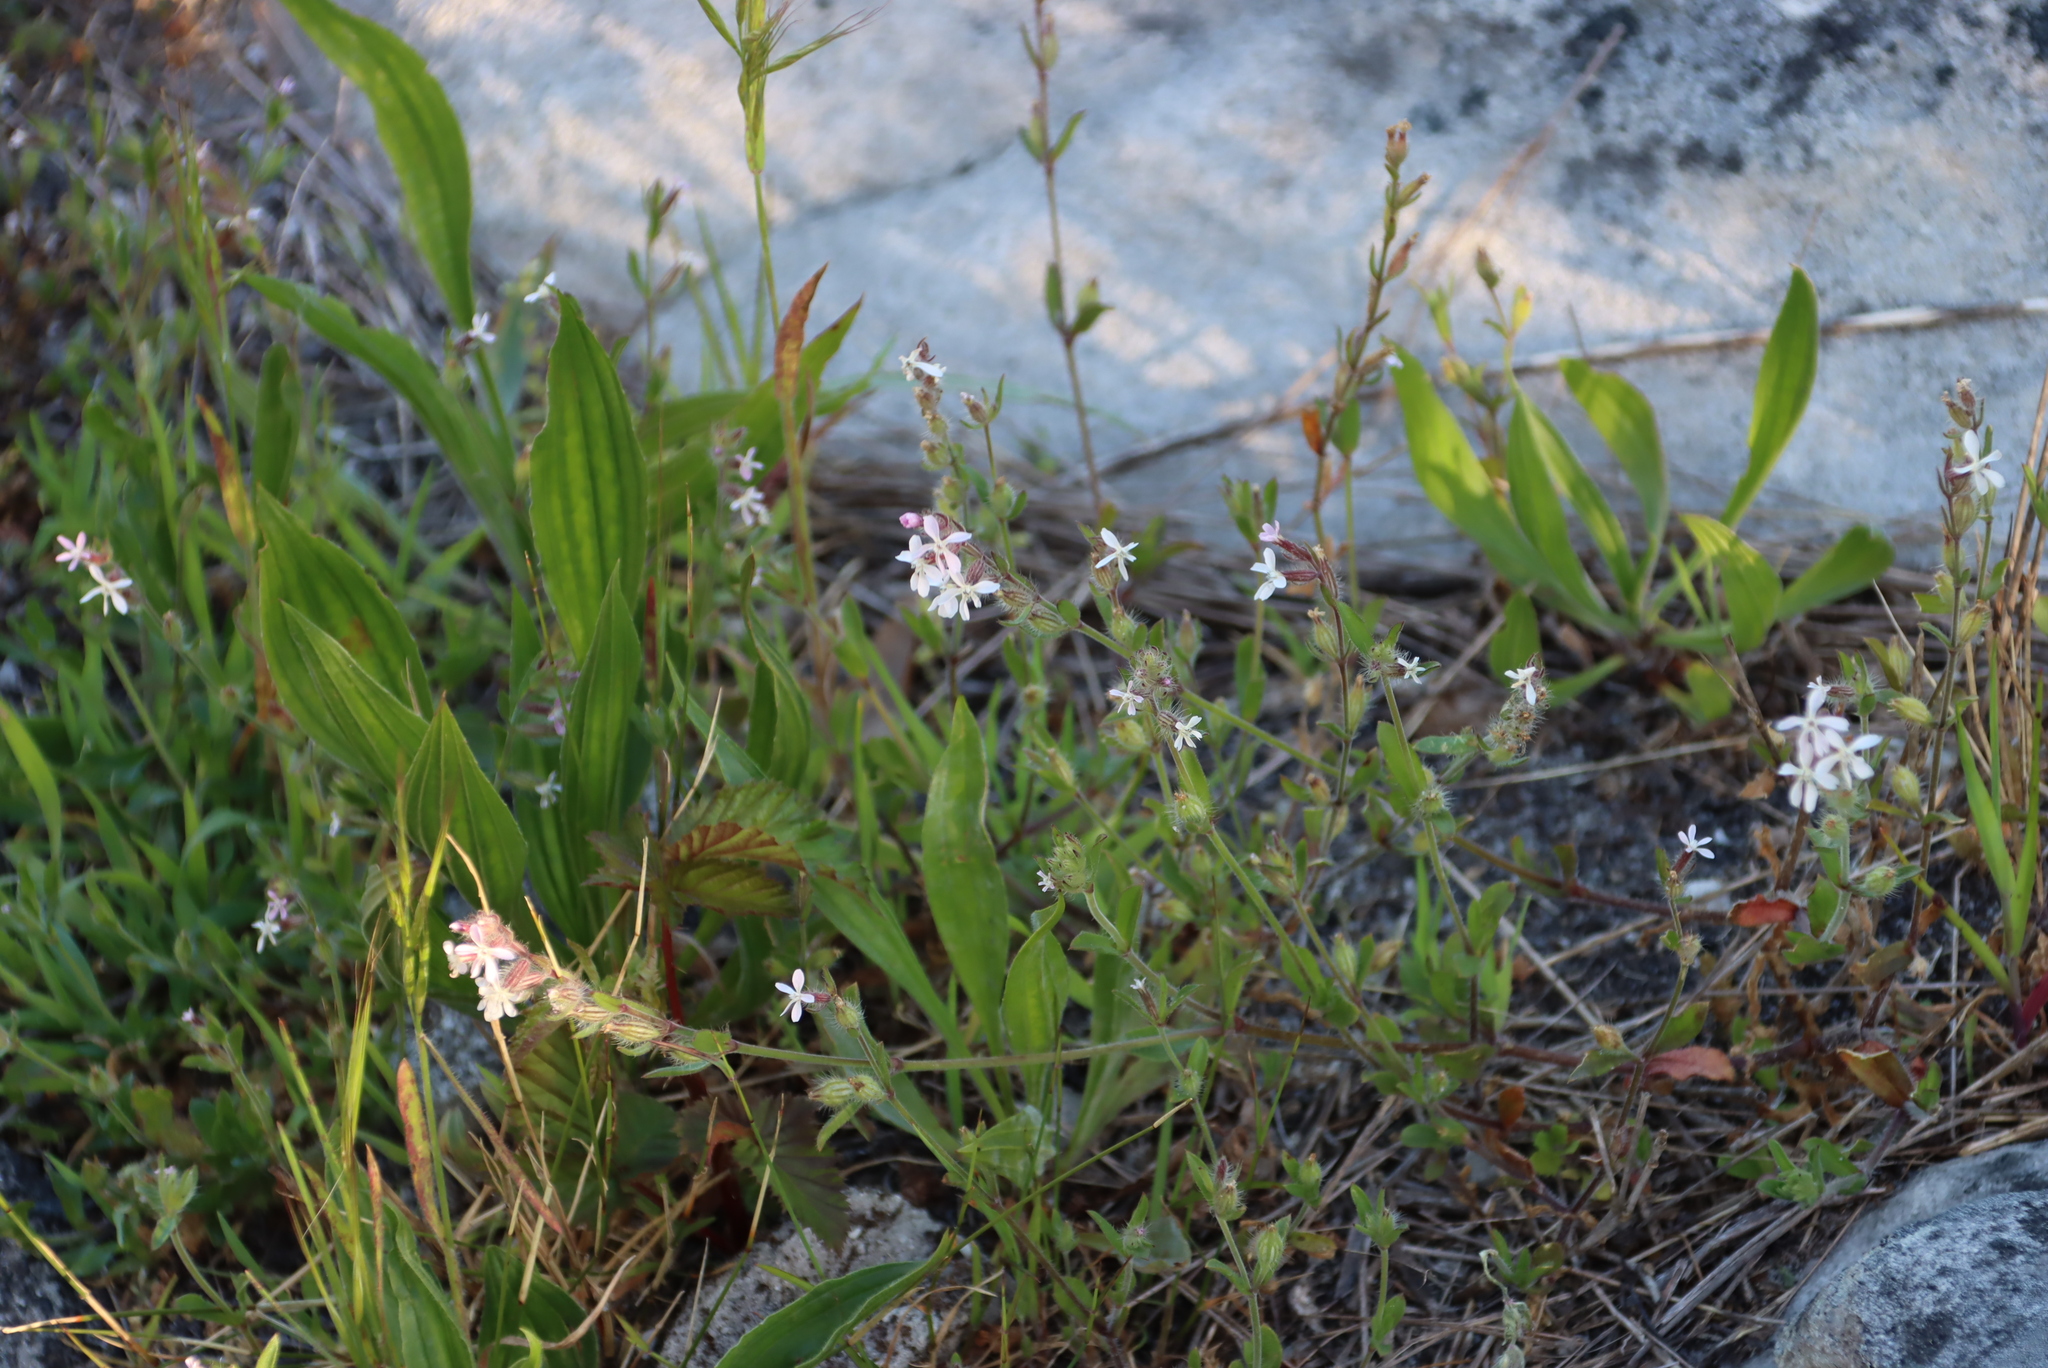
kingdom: Plantae
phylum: Tracheophyta
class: Magnoliopsida
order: Caryophyllales
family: Caryophyllaceae
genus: Silene
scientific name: Silene gallica
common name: Small-flowered catchfly
